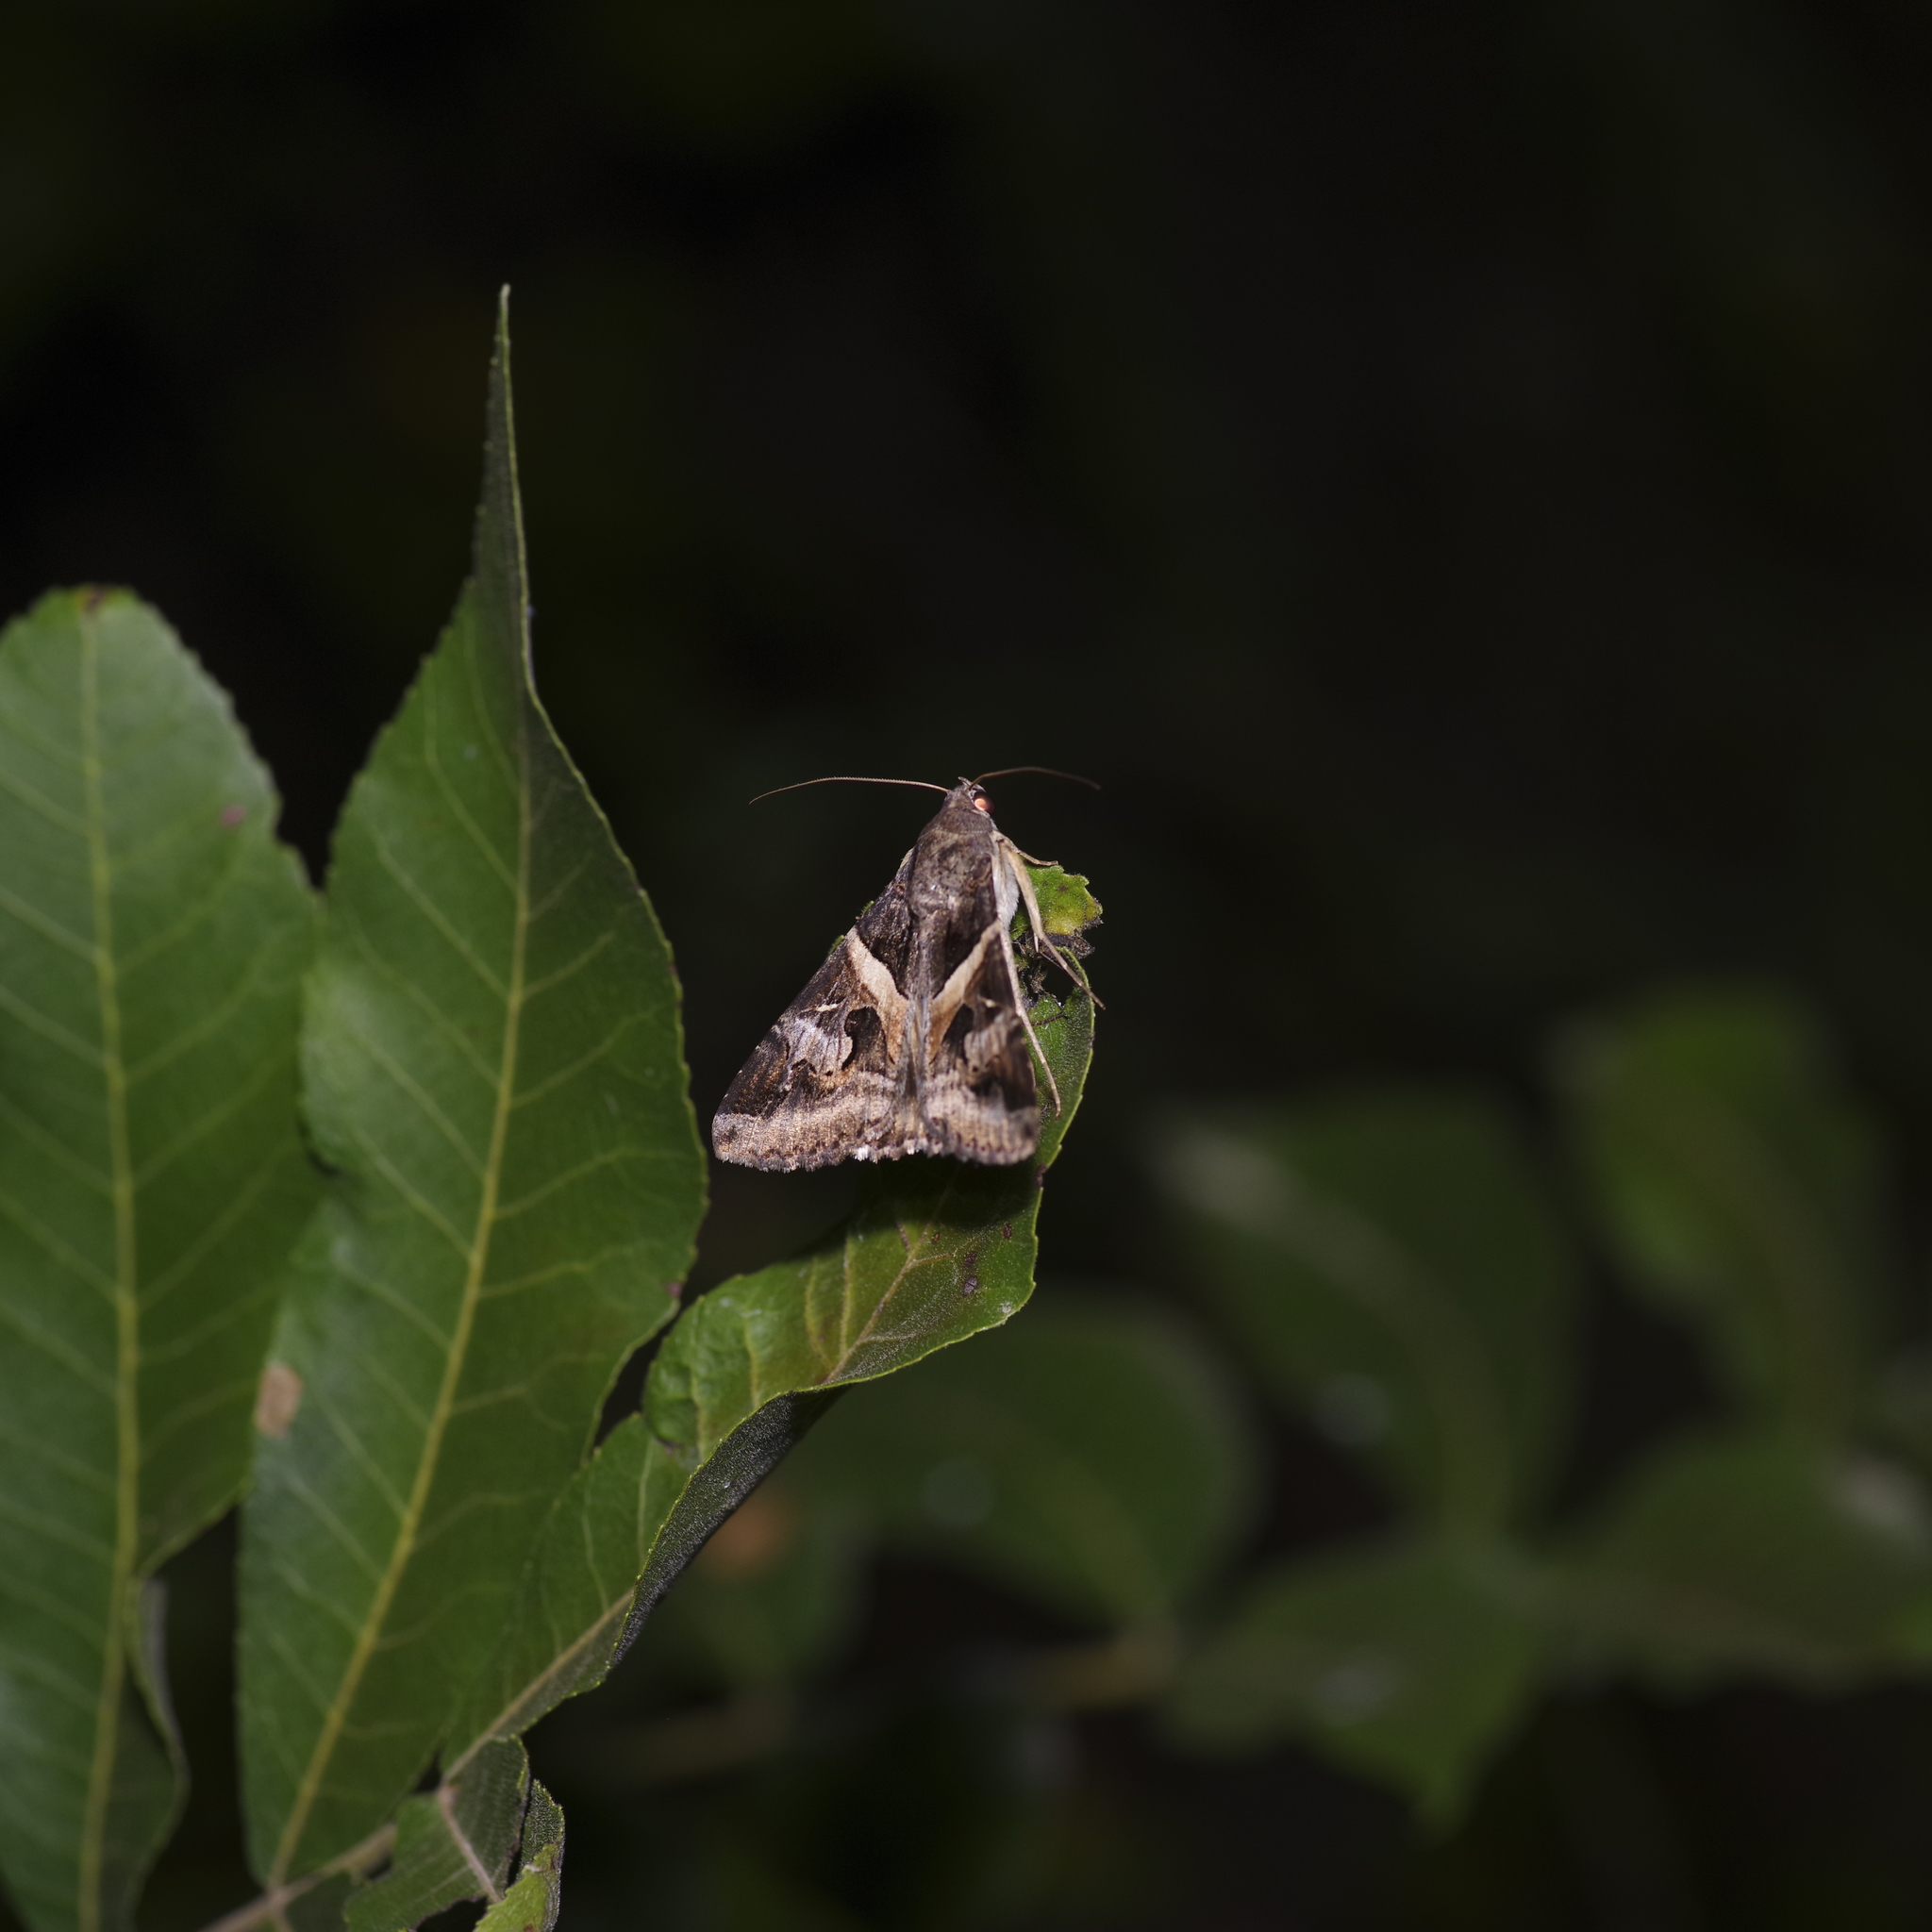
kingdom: Animalia
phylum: Arthropoda
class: Insecta
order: Lepidoptera
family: Erebidae
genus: Melipotis
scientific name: Melipotis indomita
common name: Moth
